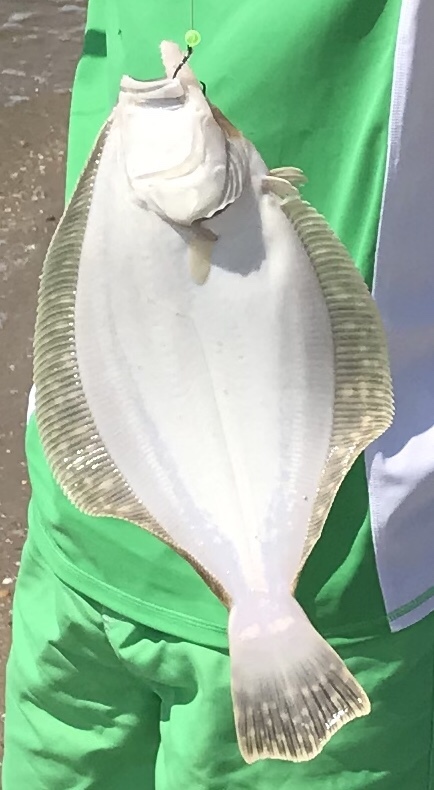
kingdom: Animalia
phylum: Chordata
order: Pleuronectiformes
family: Paralichthyidae
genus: Paralichthys
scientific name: Paralichthys dentatus
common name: Summer flounder
